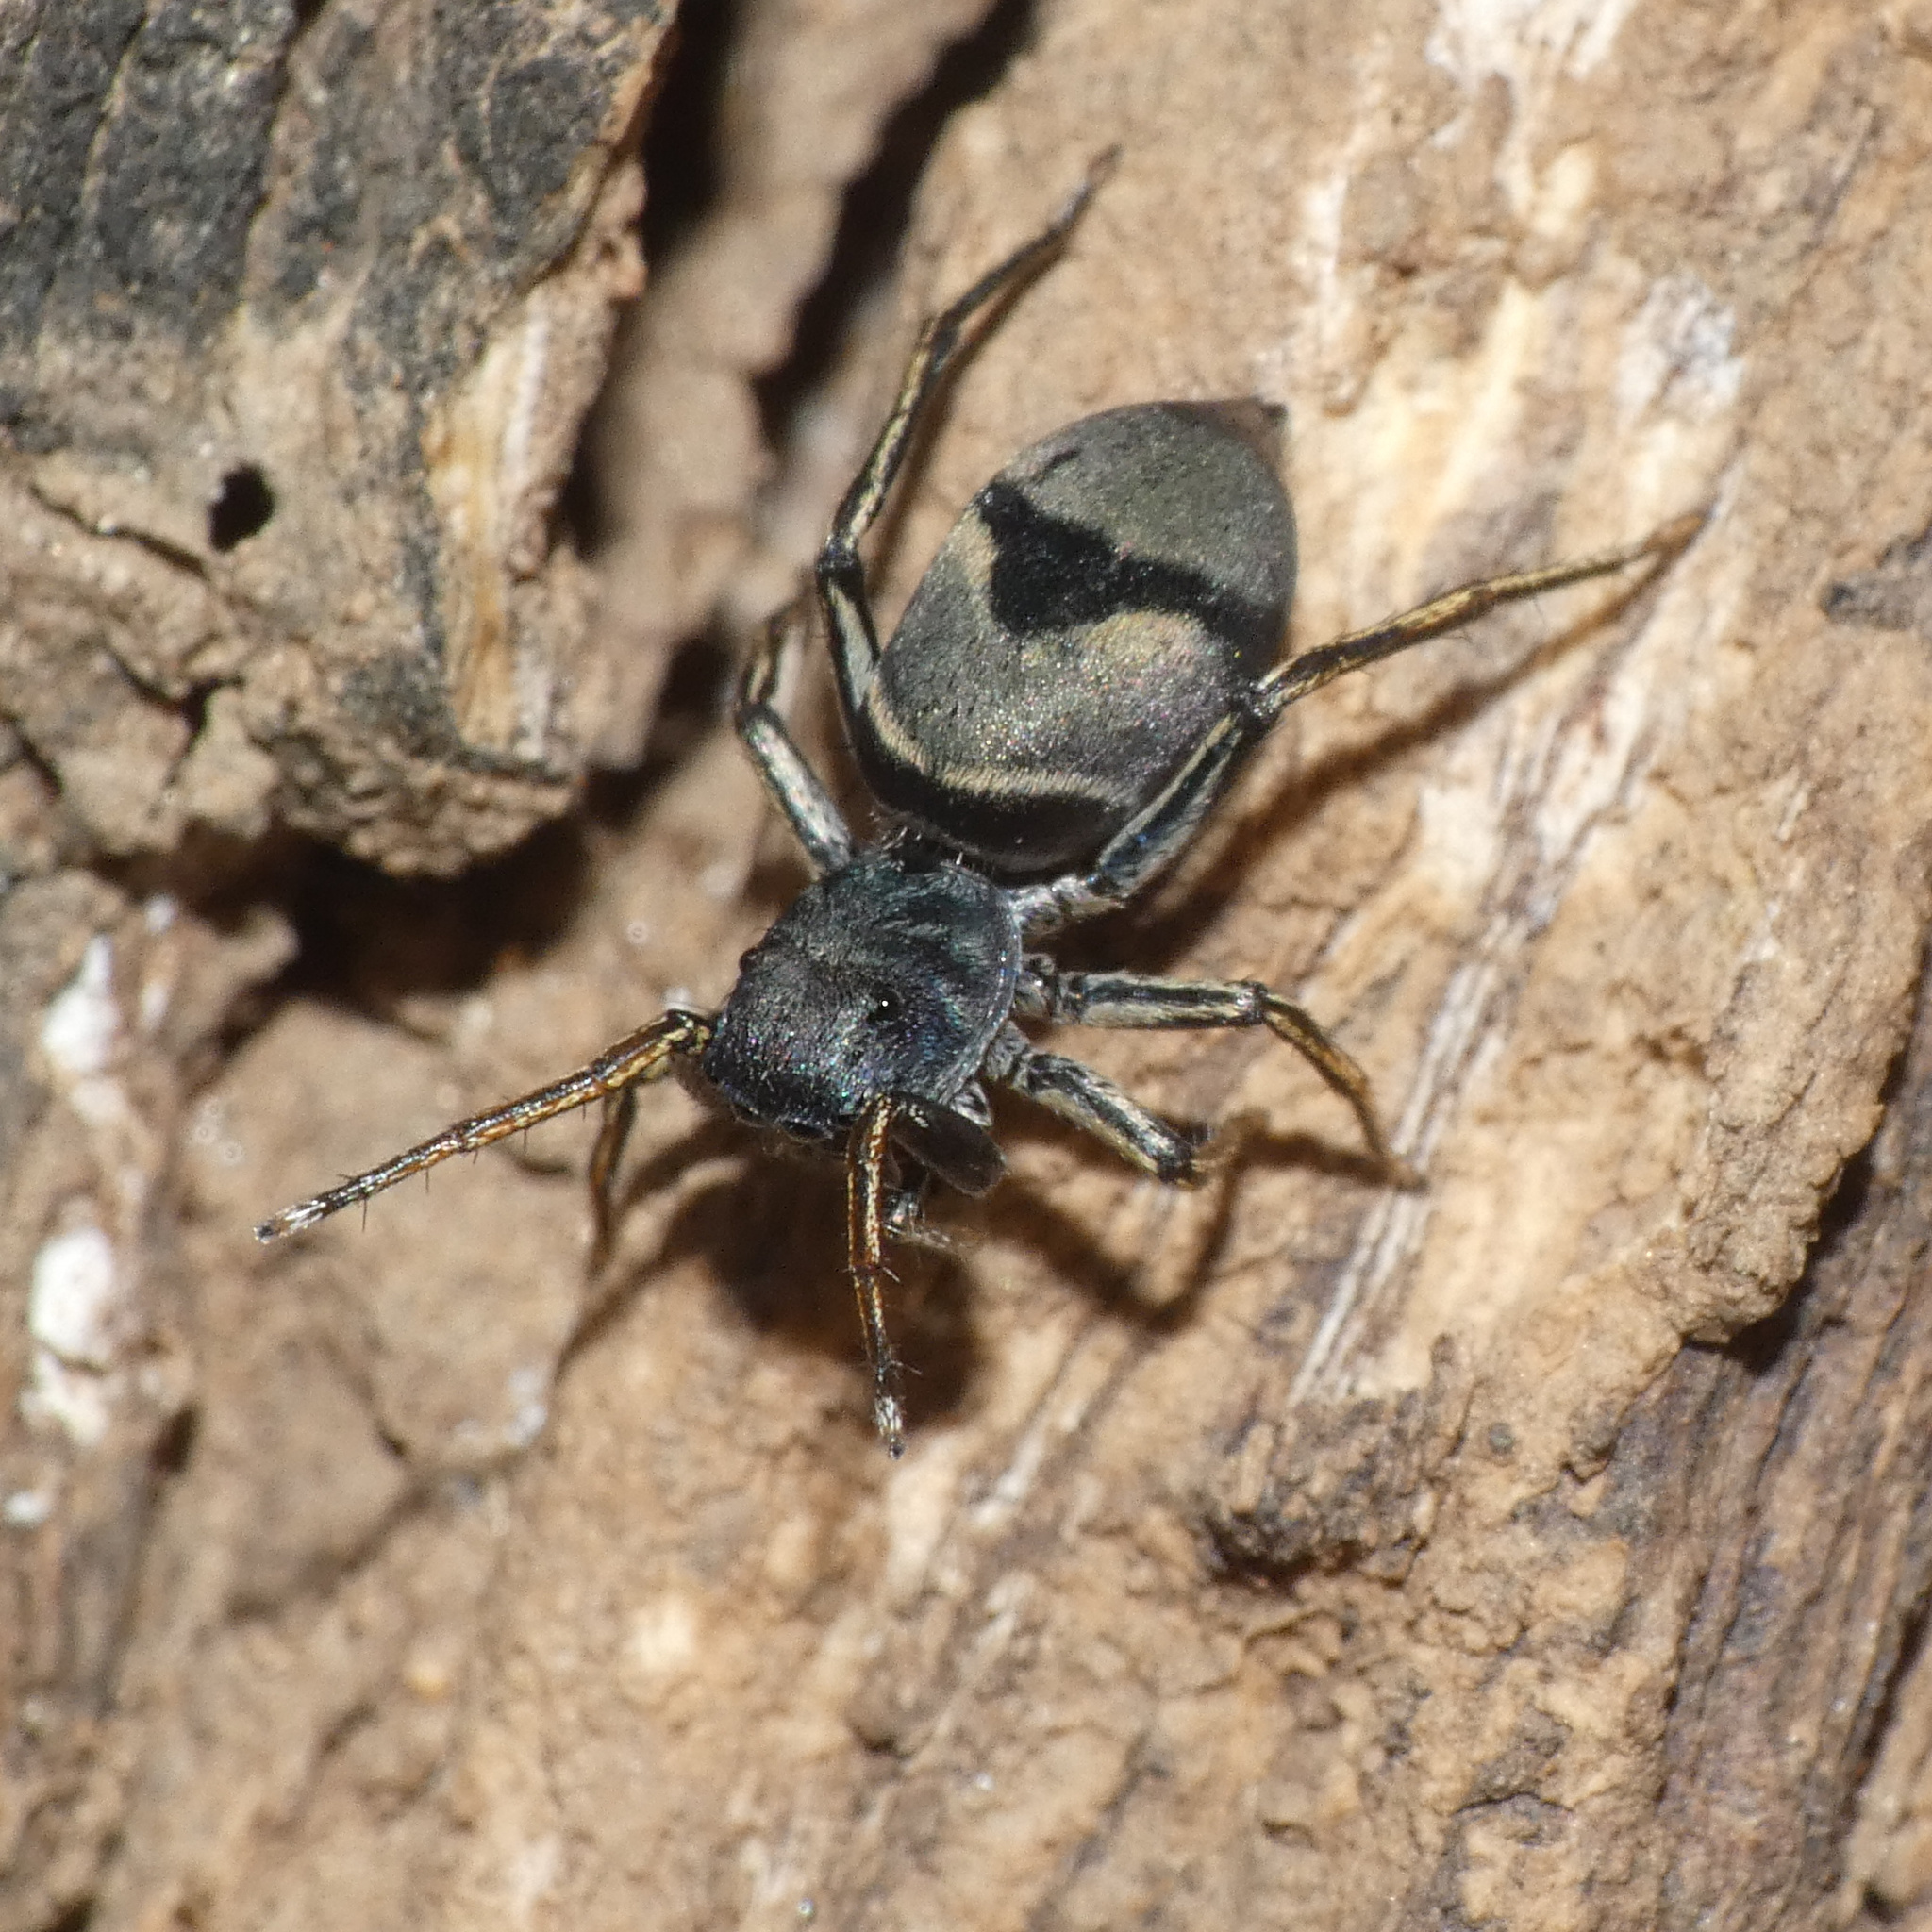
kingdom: Animalia
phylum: Arthropoda
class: Arachnida
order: Araneae
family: Salticidae
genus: Mexcala
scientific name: Mexcala elegans
